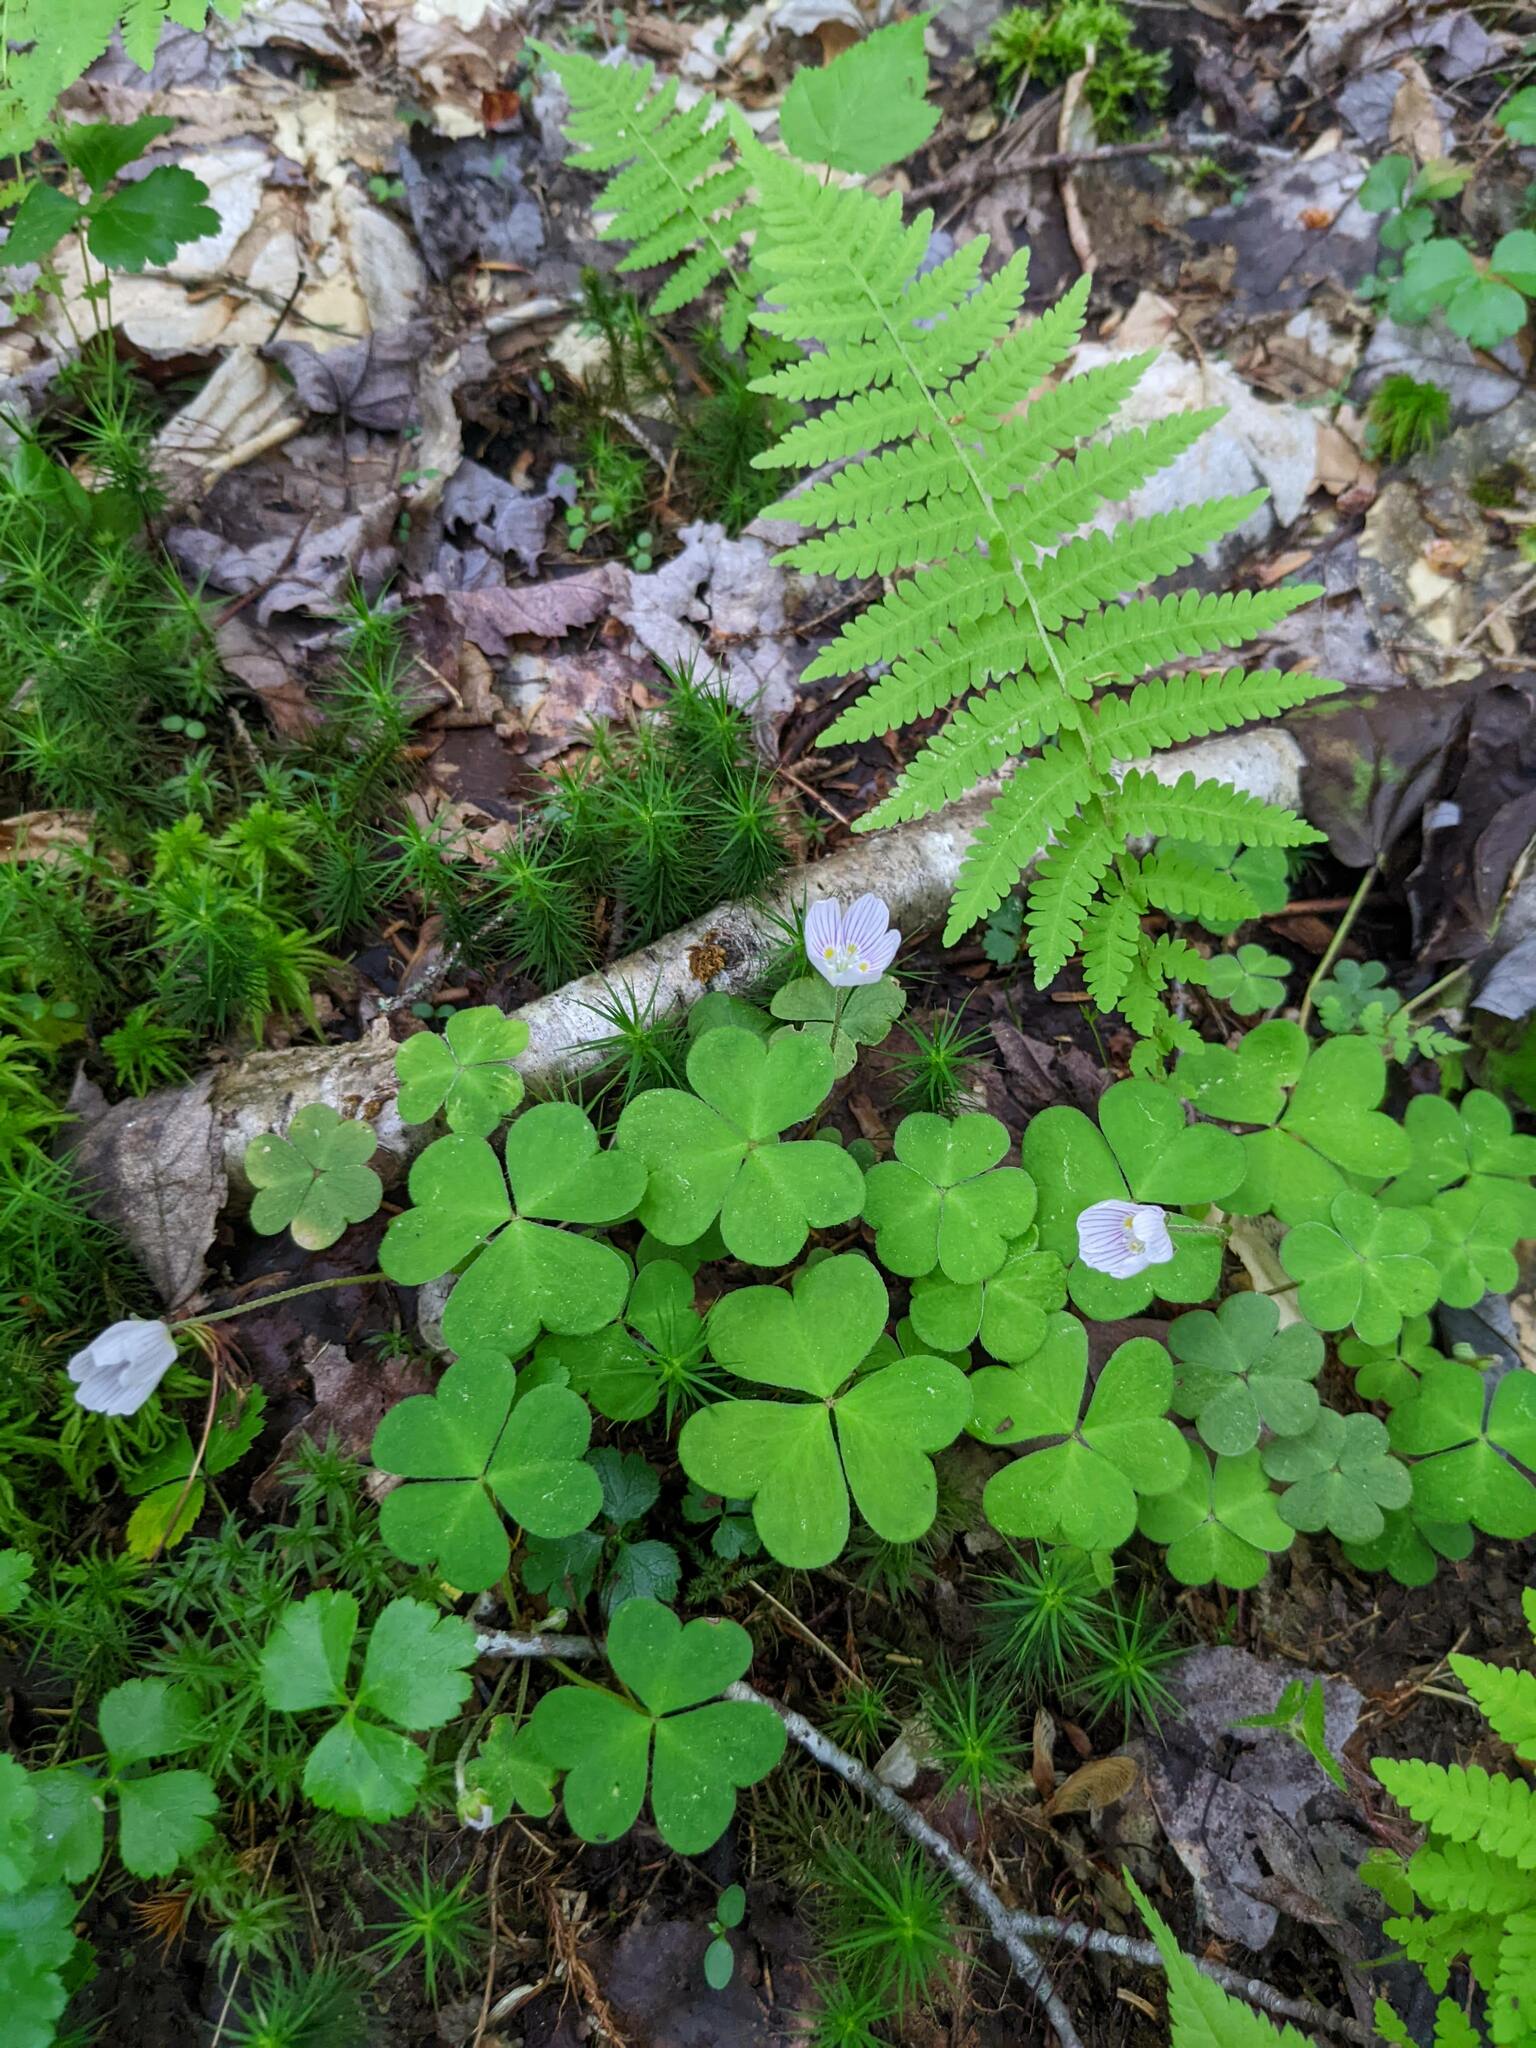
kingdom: Plantae
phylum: Tracheophyta
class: Magnoliopsida
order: Oxalidales
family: Oxalidaceae
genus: Oxalis
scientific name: Oxalis montana
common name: American wood-sorrel
